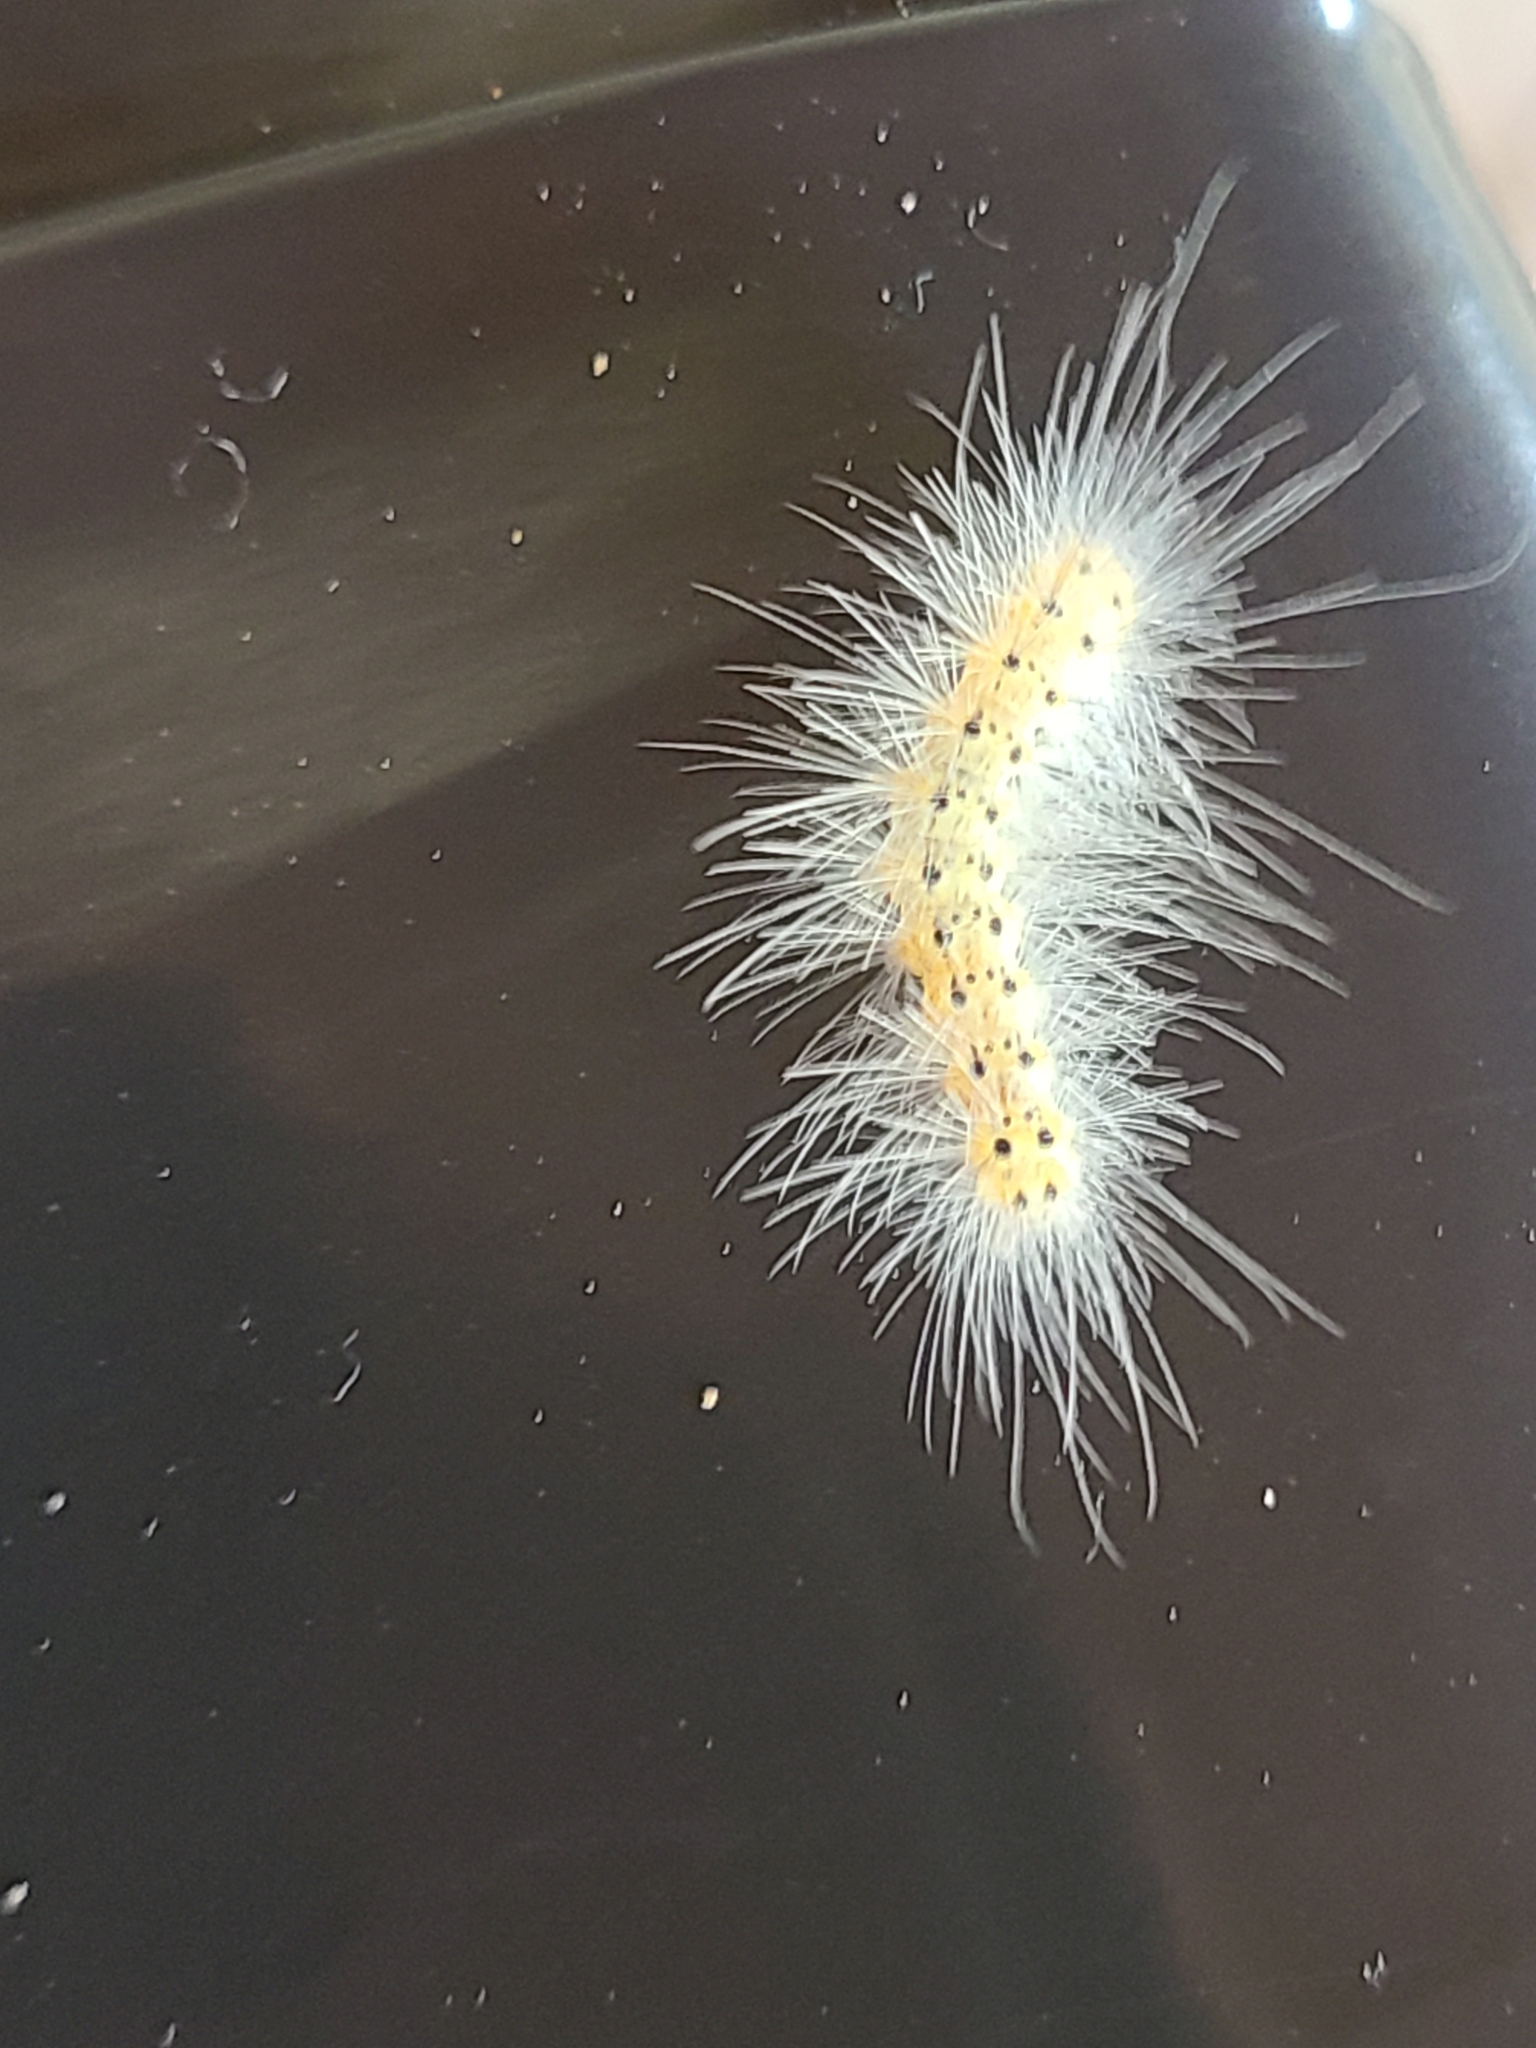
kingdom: Animalia
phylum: Arthropoda
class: Insecta
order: Lepidoptera
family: Erebidae
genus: Hyphantria
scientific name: Hyphantria cunea
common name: American white moth
